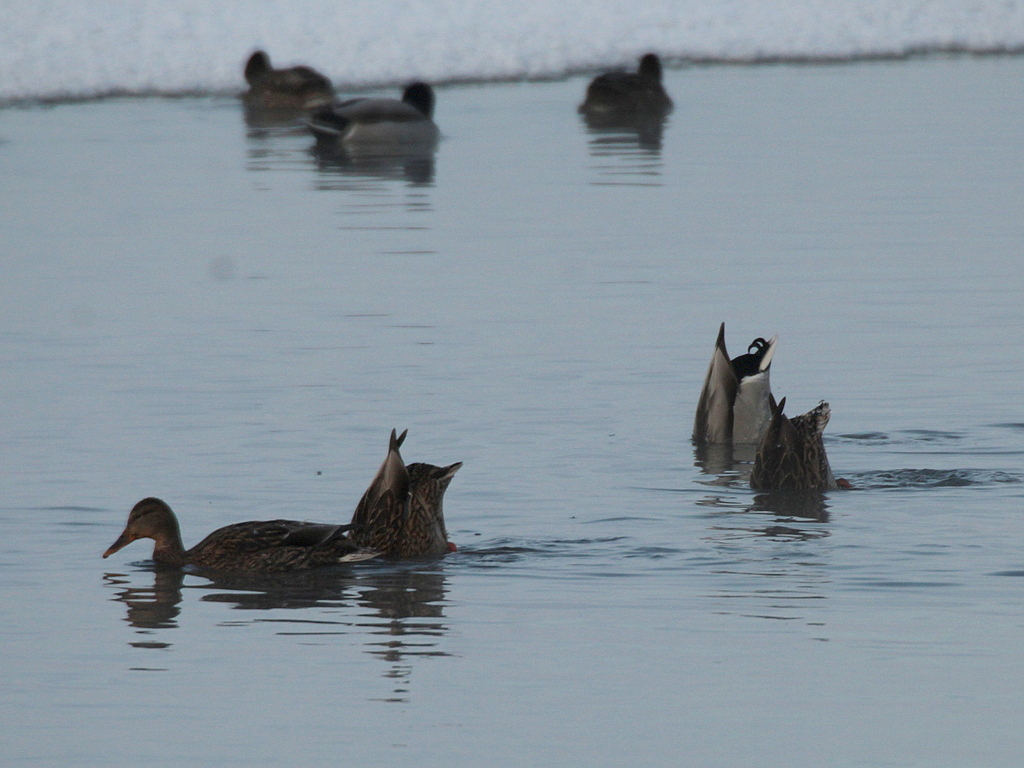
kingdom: Animalia
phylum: Chordata
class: Aves
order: Anseriformes
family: Anatidae
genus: Anas
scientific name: Anas platyrhynchos
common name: Mallard
